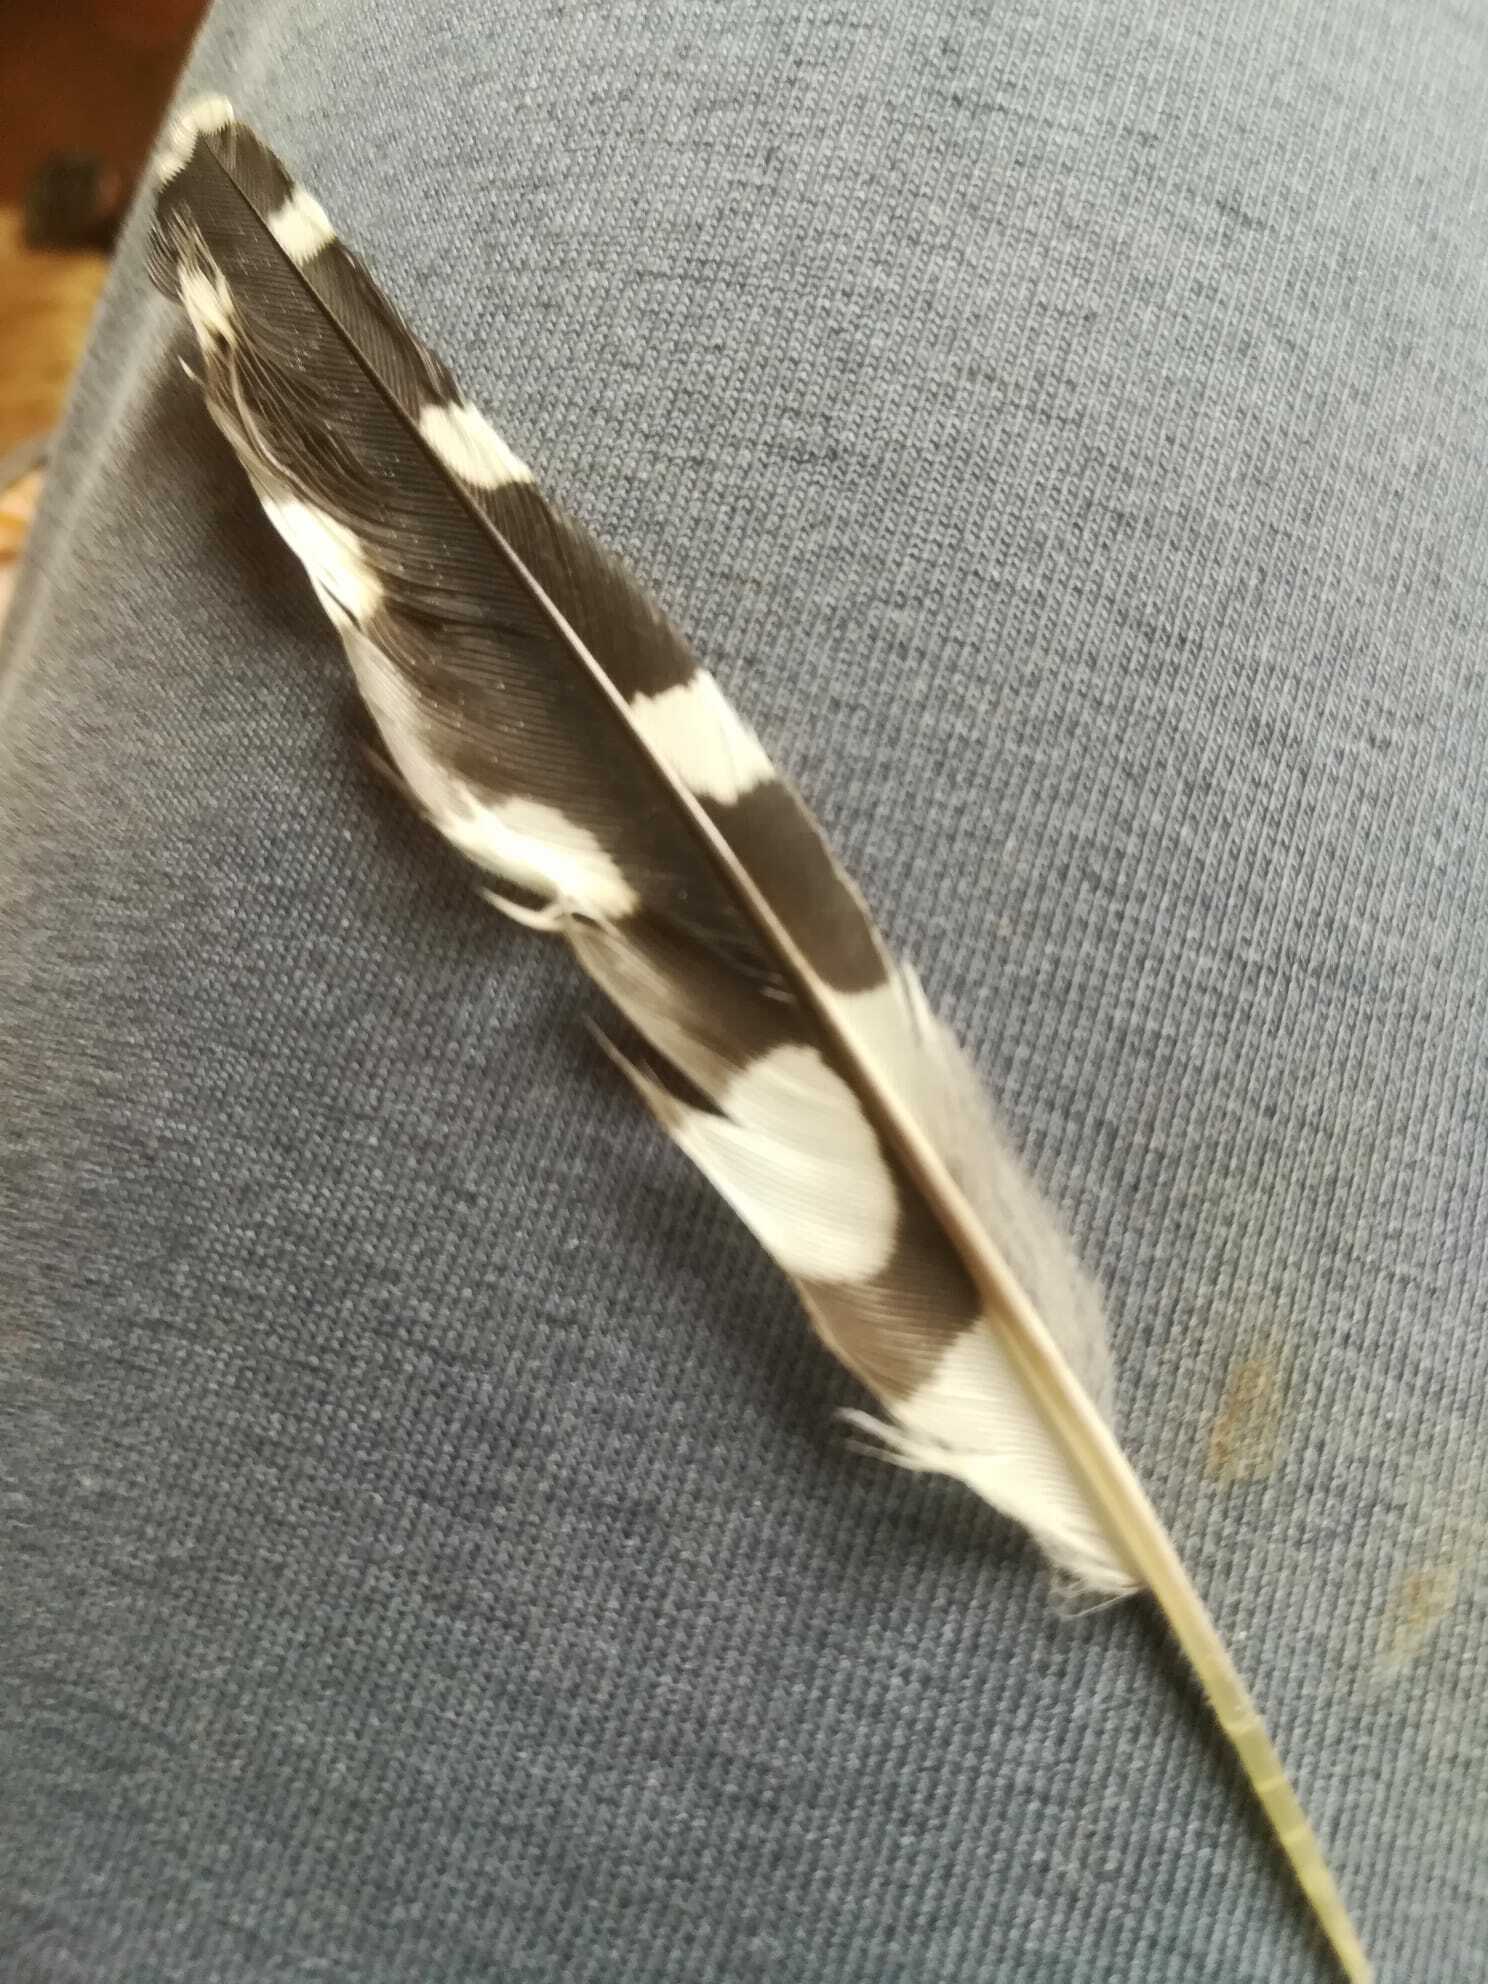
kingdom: Animalia
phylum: Chordata
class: Aves
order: Piciformes
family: Picidae
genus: Dendrocopos
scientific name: Dendrocopos major
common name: Great spotted woodpecker
